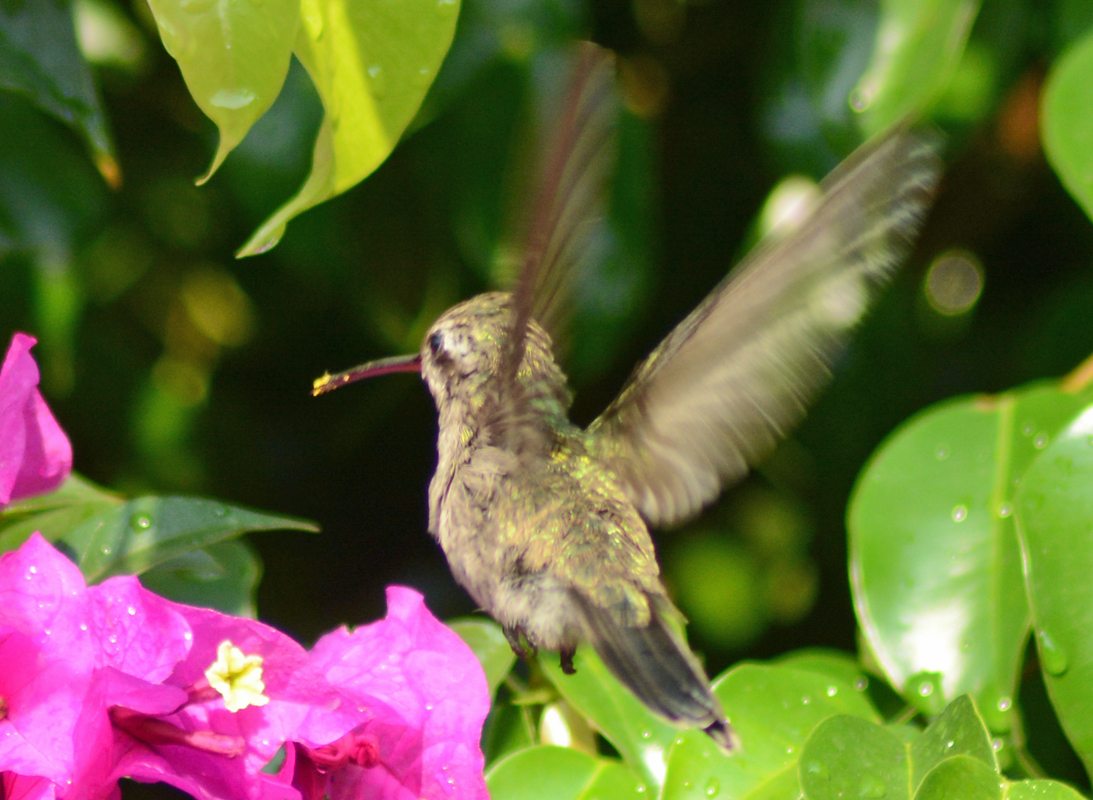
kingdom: Animalia
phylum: Chordata
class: Aves
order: Apodiformes
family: Trochilidae
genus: Cynanthus
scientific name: Cynanthus latirostris
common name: Broad-billed hummingbird
